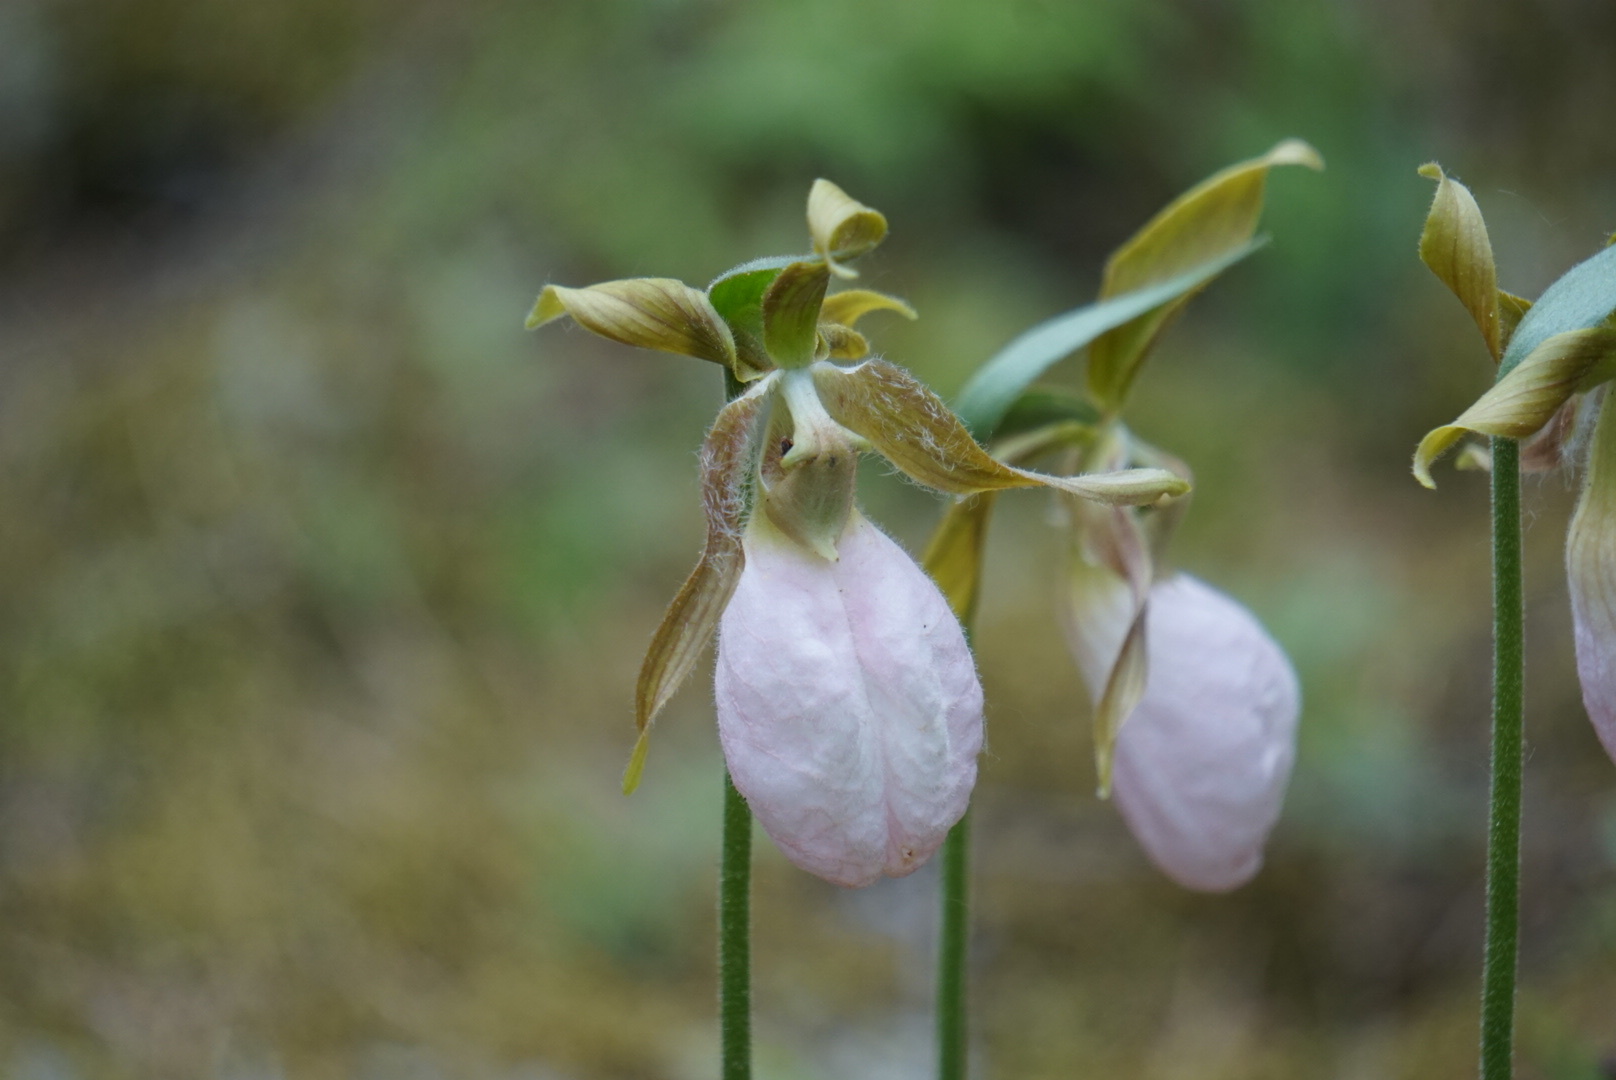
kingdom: Plantae
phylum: Tracheophyta
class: Liliopsida
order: Asparagales
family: Orchidaceae
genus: Cypripedium
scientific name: Cypripedium acaule
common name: Pink lady's-slipper
